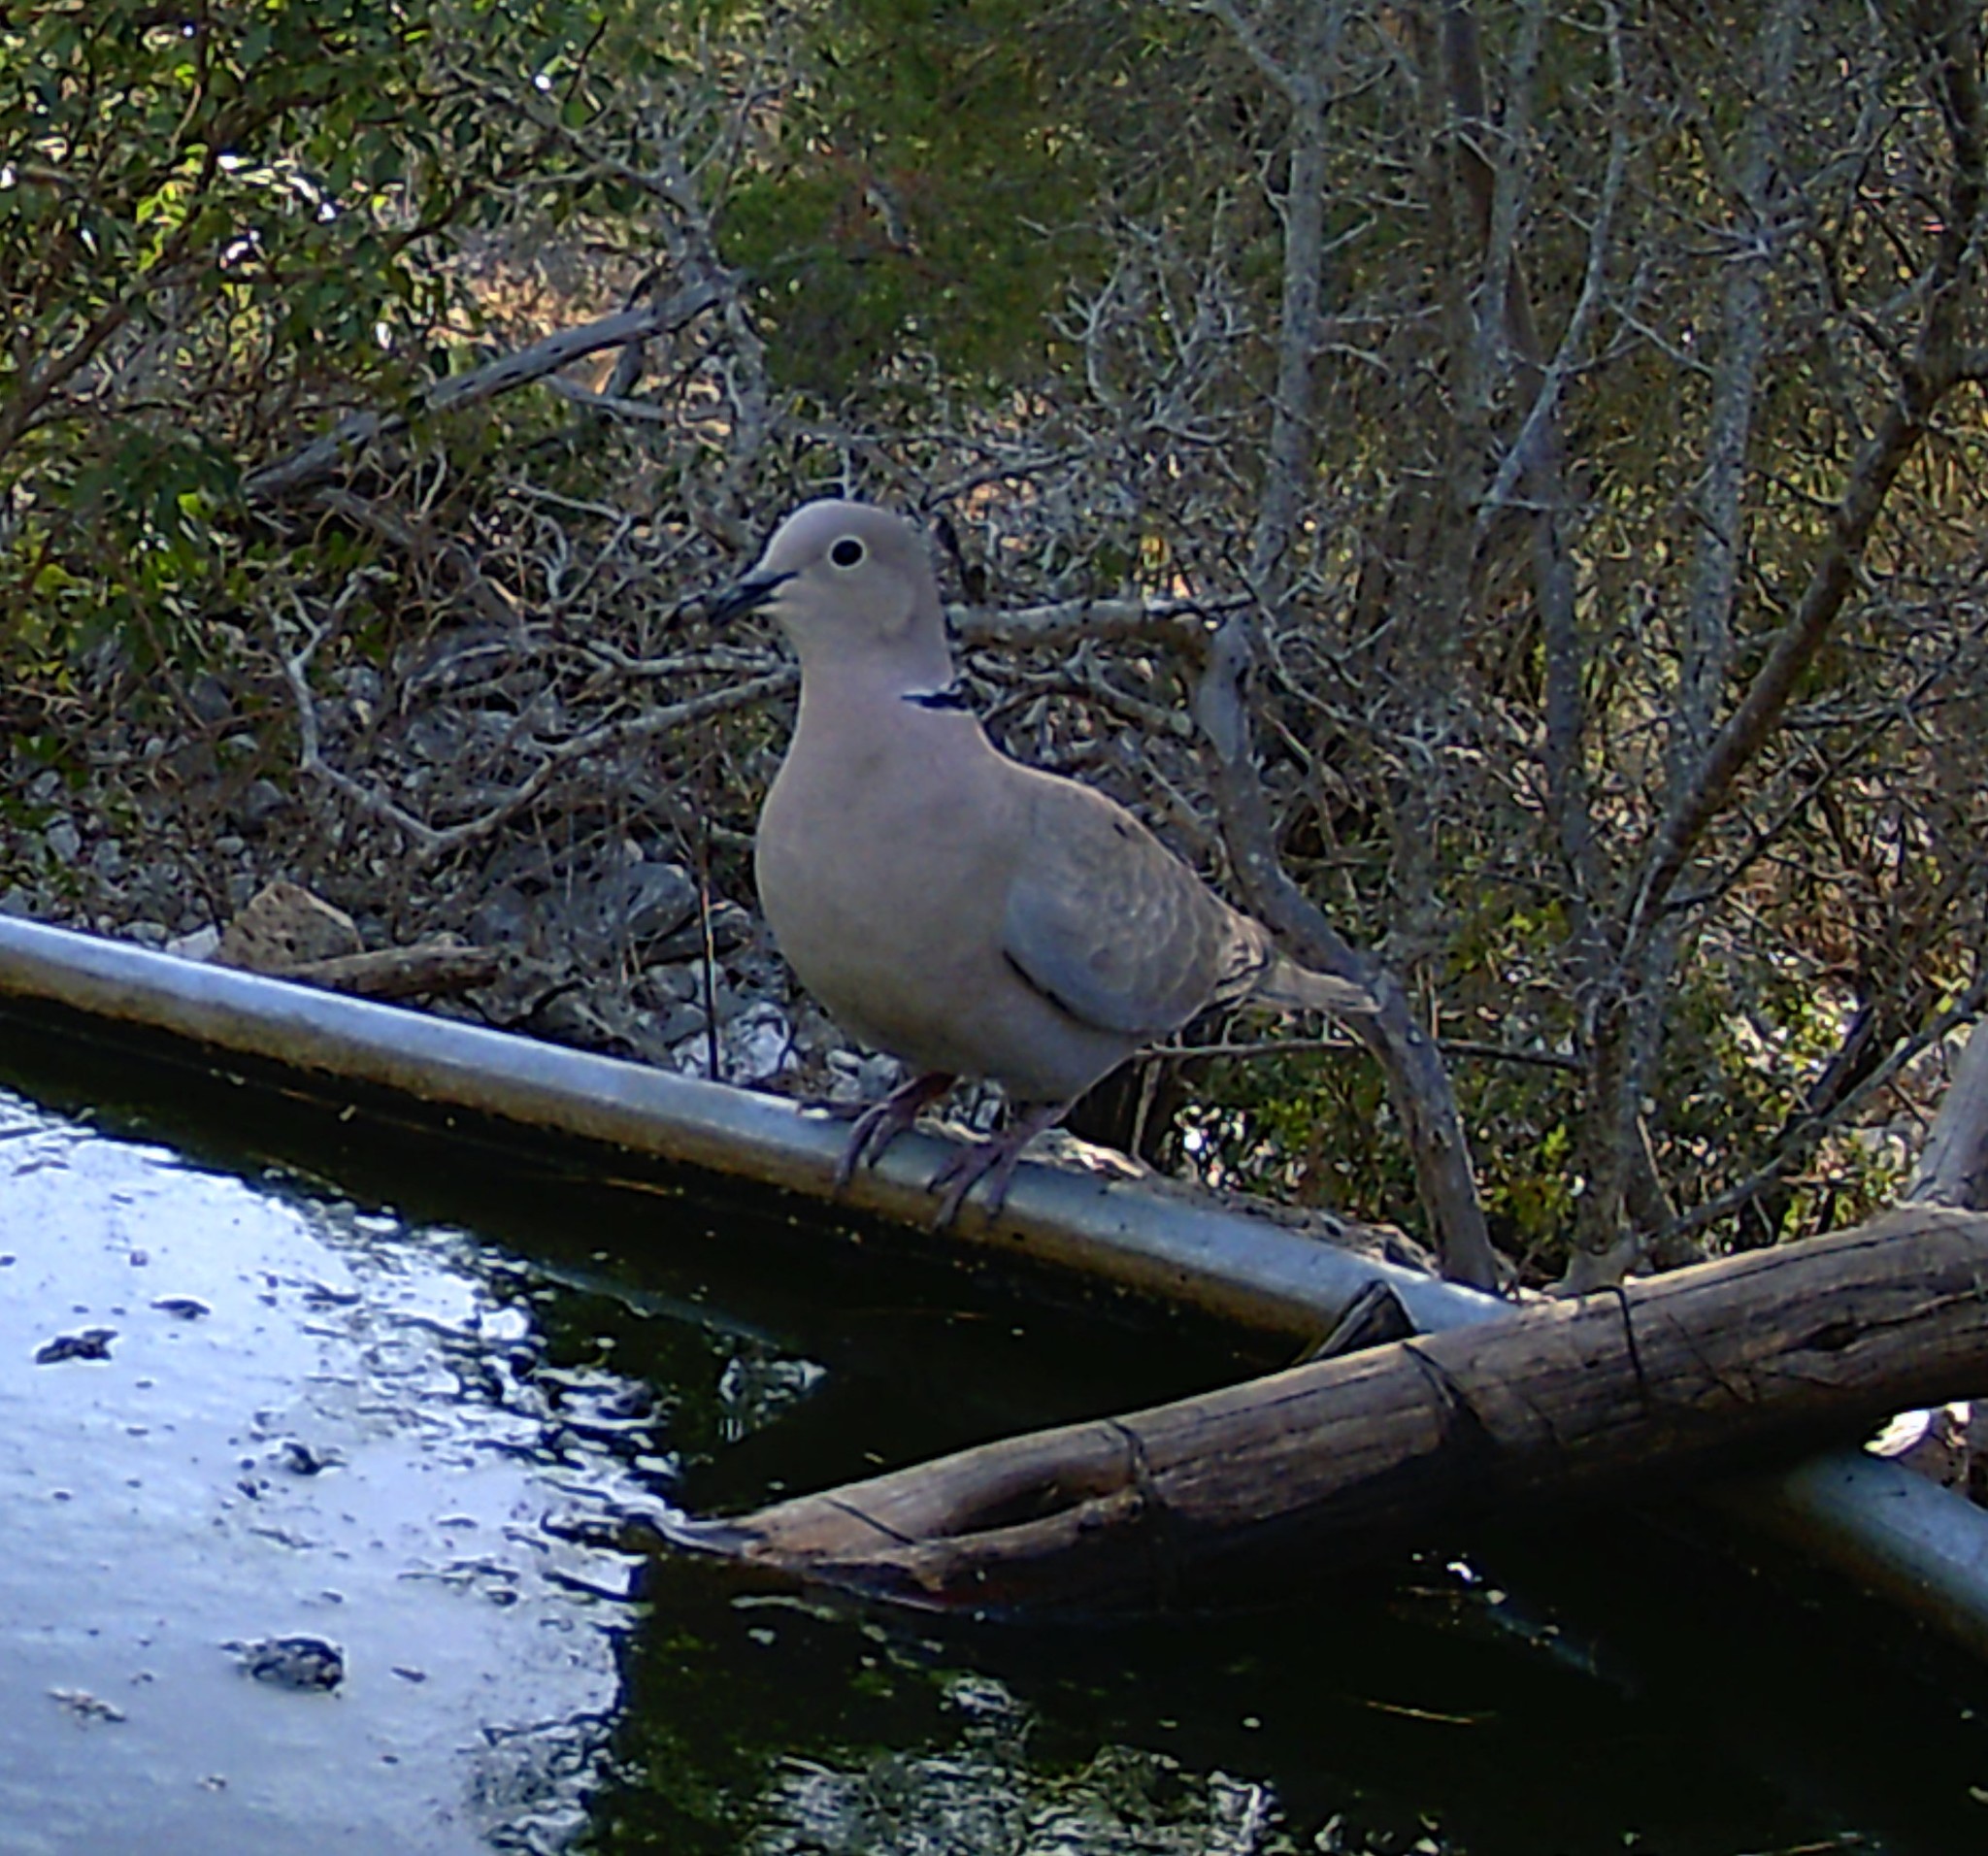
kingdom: Animalia
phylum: Chordata
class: Aves
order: Columbiformes
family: Columbidae
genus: Streptopelia
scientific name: Streptopelia decaocto
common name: Eurasian collared dove
